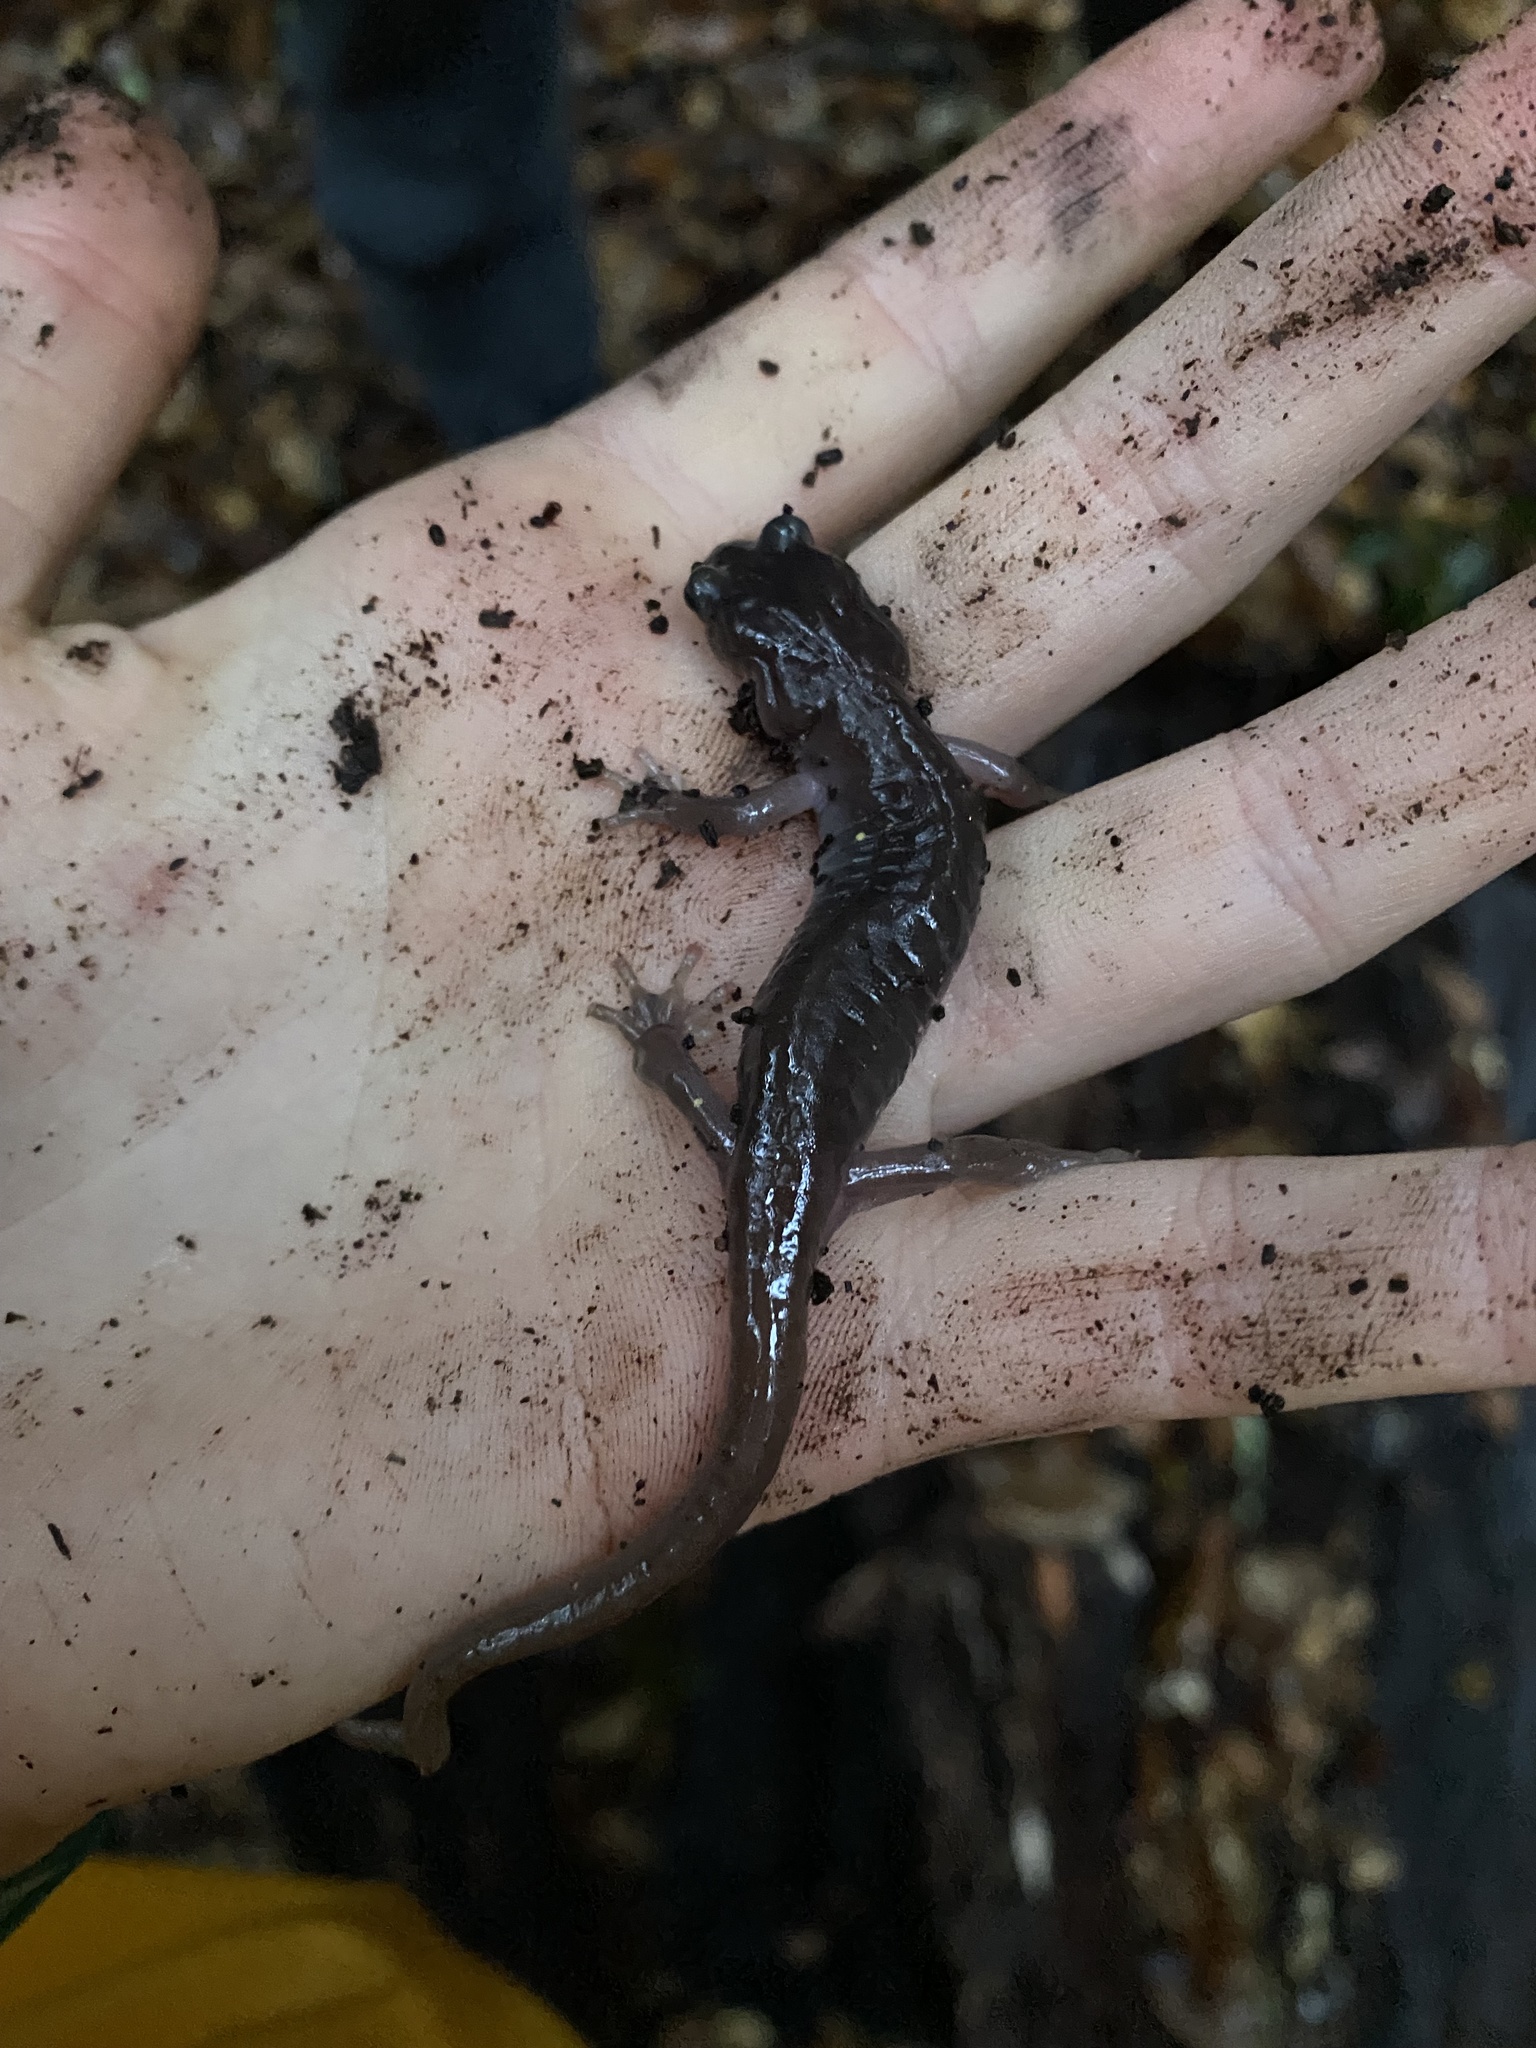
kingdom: Animalia
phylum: Chordata
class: Amphibia
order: Caudata
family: Plethodontidae
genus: Aneides
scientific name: Aneides lugubris
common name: Arboreal salamander
